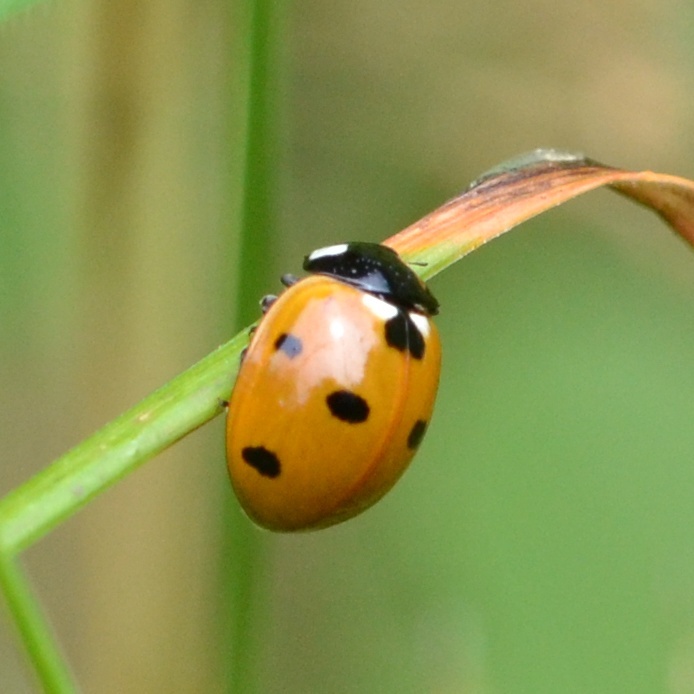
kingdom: Animalia
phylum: Arthropoda
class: Insecta
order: Coleoptera
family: Coccinellidae
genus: Coccinella
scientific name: Coccinella septempunctata
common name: Sevenspotted lady beetle
